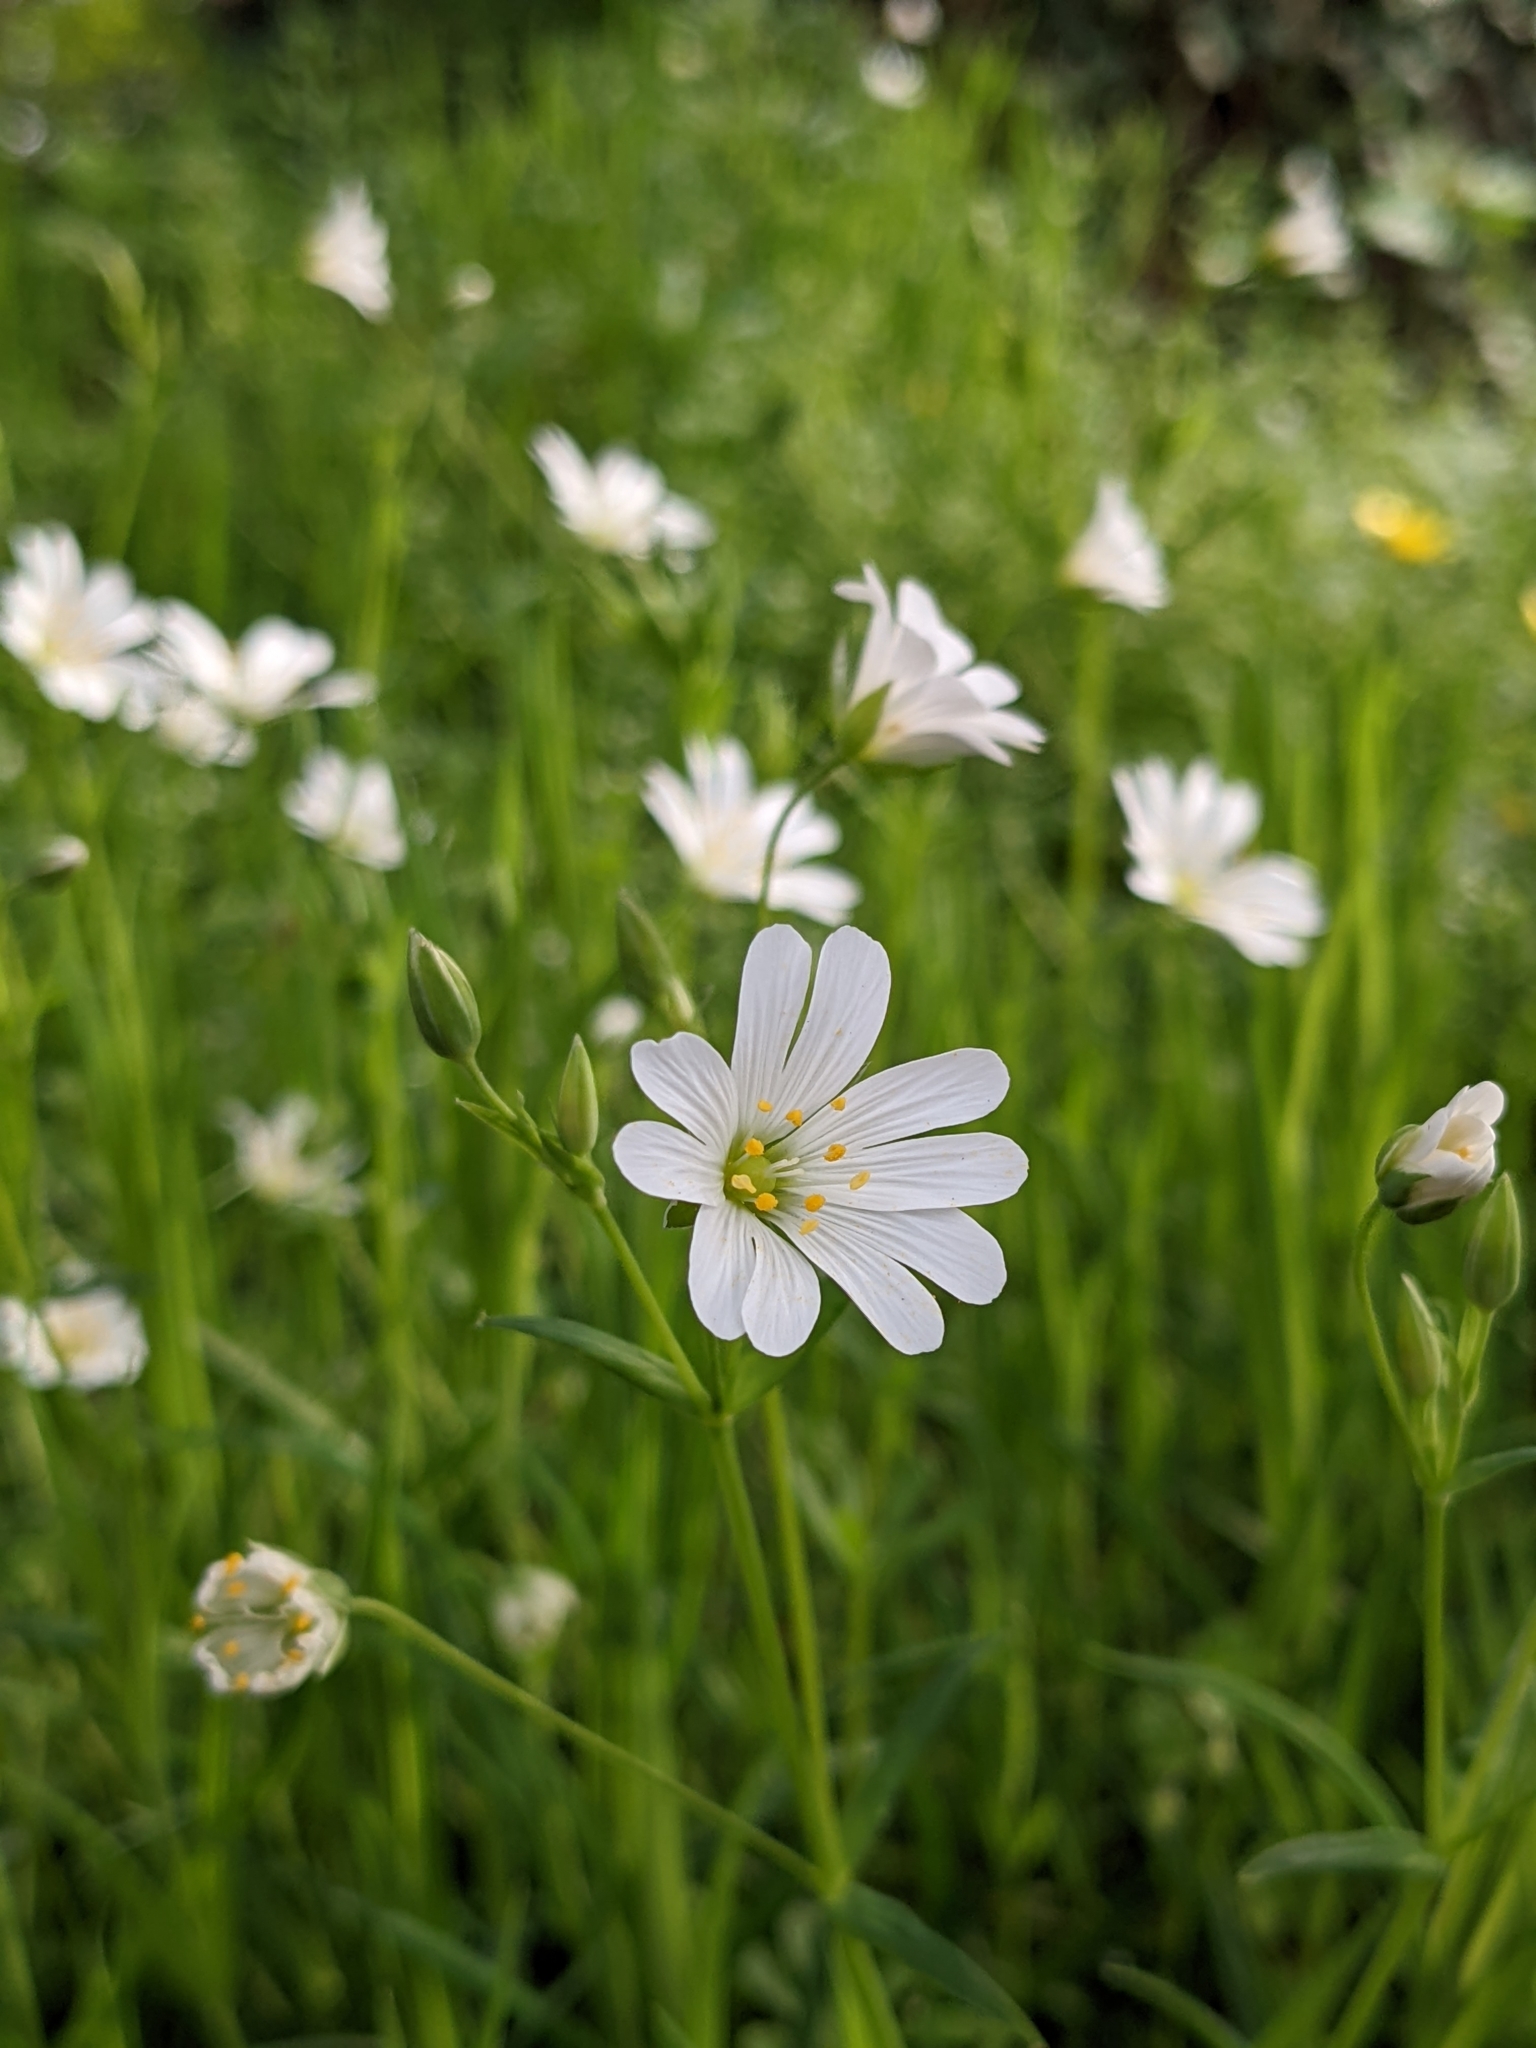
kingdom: Plantae
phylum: Tracheophyta
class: Magnoliopsida
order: Caryophyllales
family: Caryophyllaceae
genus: Rabelera
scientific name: Rabelera holostea
